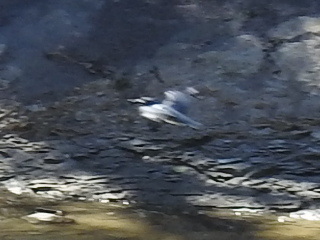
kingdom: Animalia
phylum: Chordata
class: Aves
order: Coraciiformes
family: Alcedinidae
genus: Megaceryle
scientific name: Megaceryle alcyon
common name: Belted kingfisher
